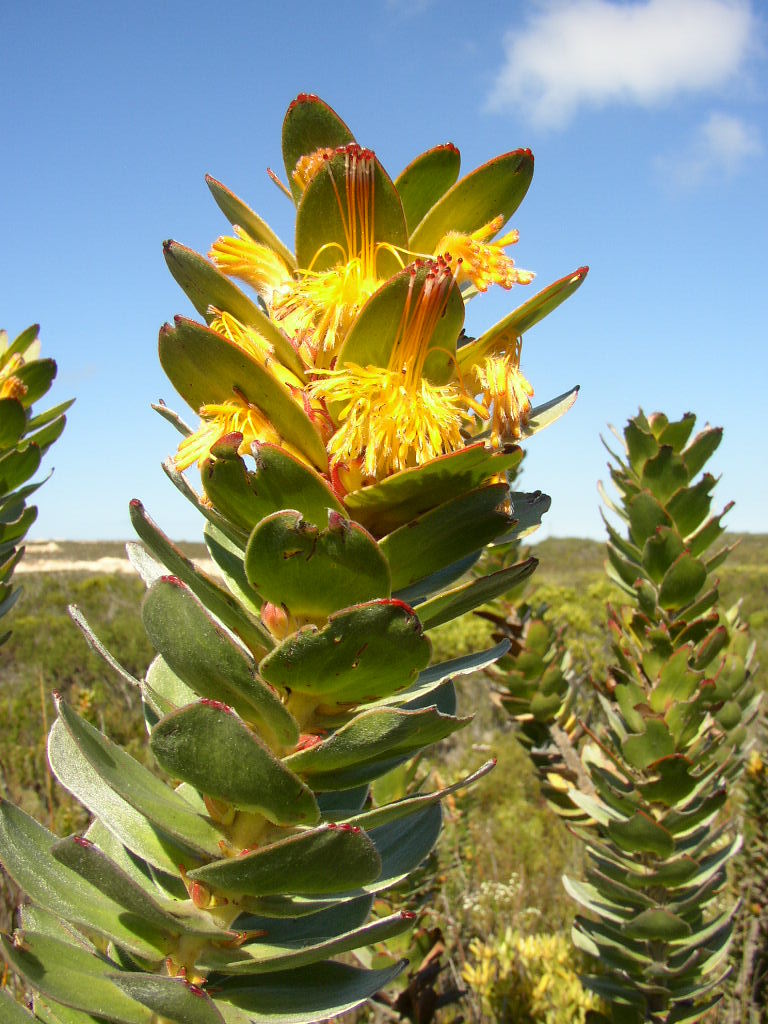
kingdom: Plantae
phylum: Tracheophyta
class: Magnoliopsida
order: Proteales
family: Proteaceae
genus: Mimetes
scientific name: Mimetes saxatilis
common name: Limestone pagoda
